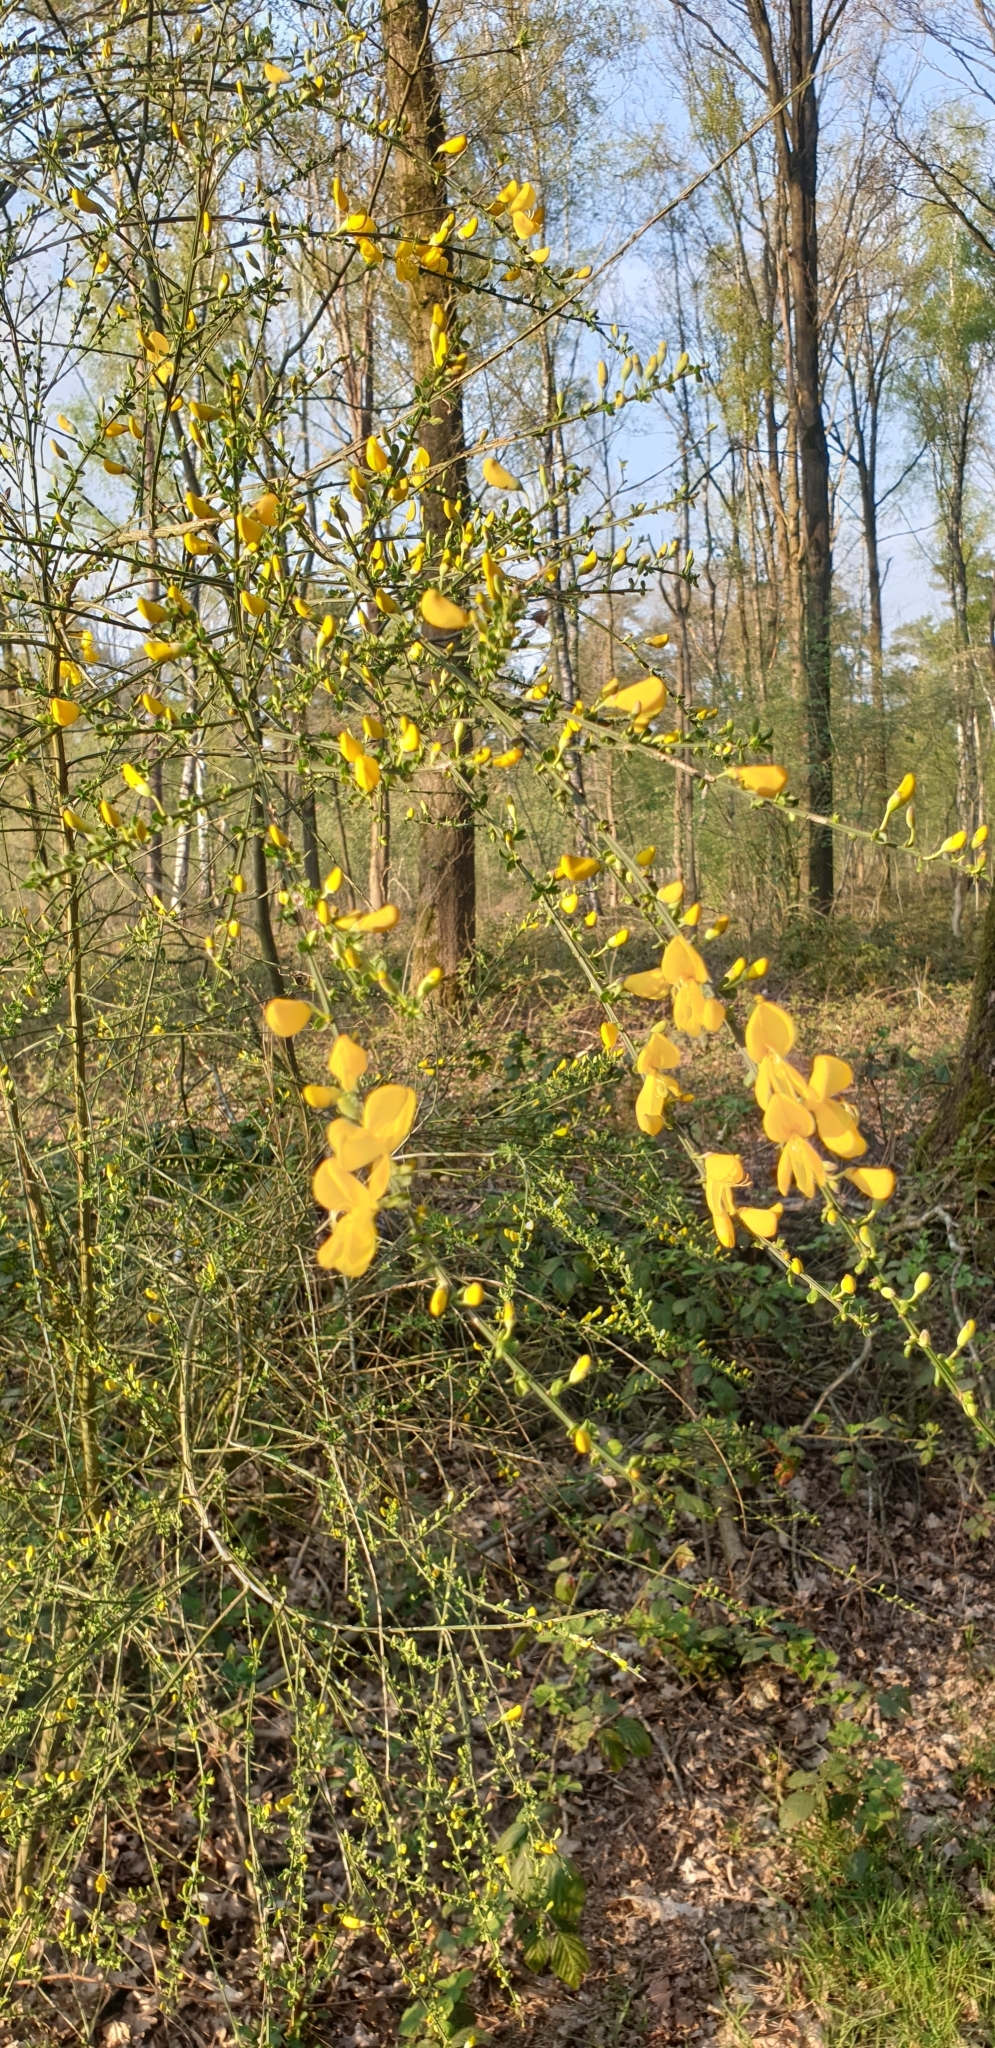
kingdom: Plantae
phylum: Tracheophyta
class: Magnoliopsida
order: Fabales
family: Fabaceae
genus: Cytisus
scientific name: Cytisus scoparius
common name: Scotch broom
